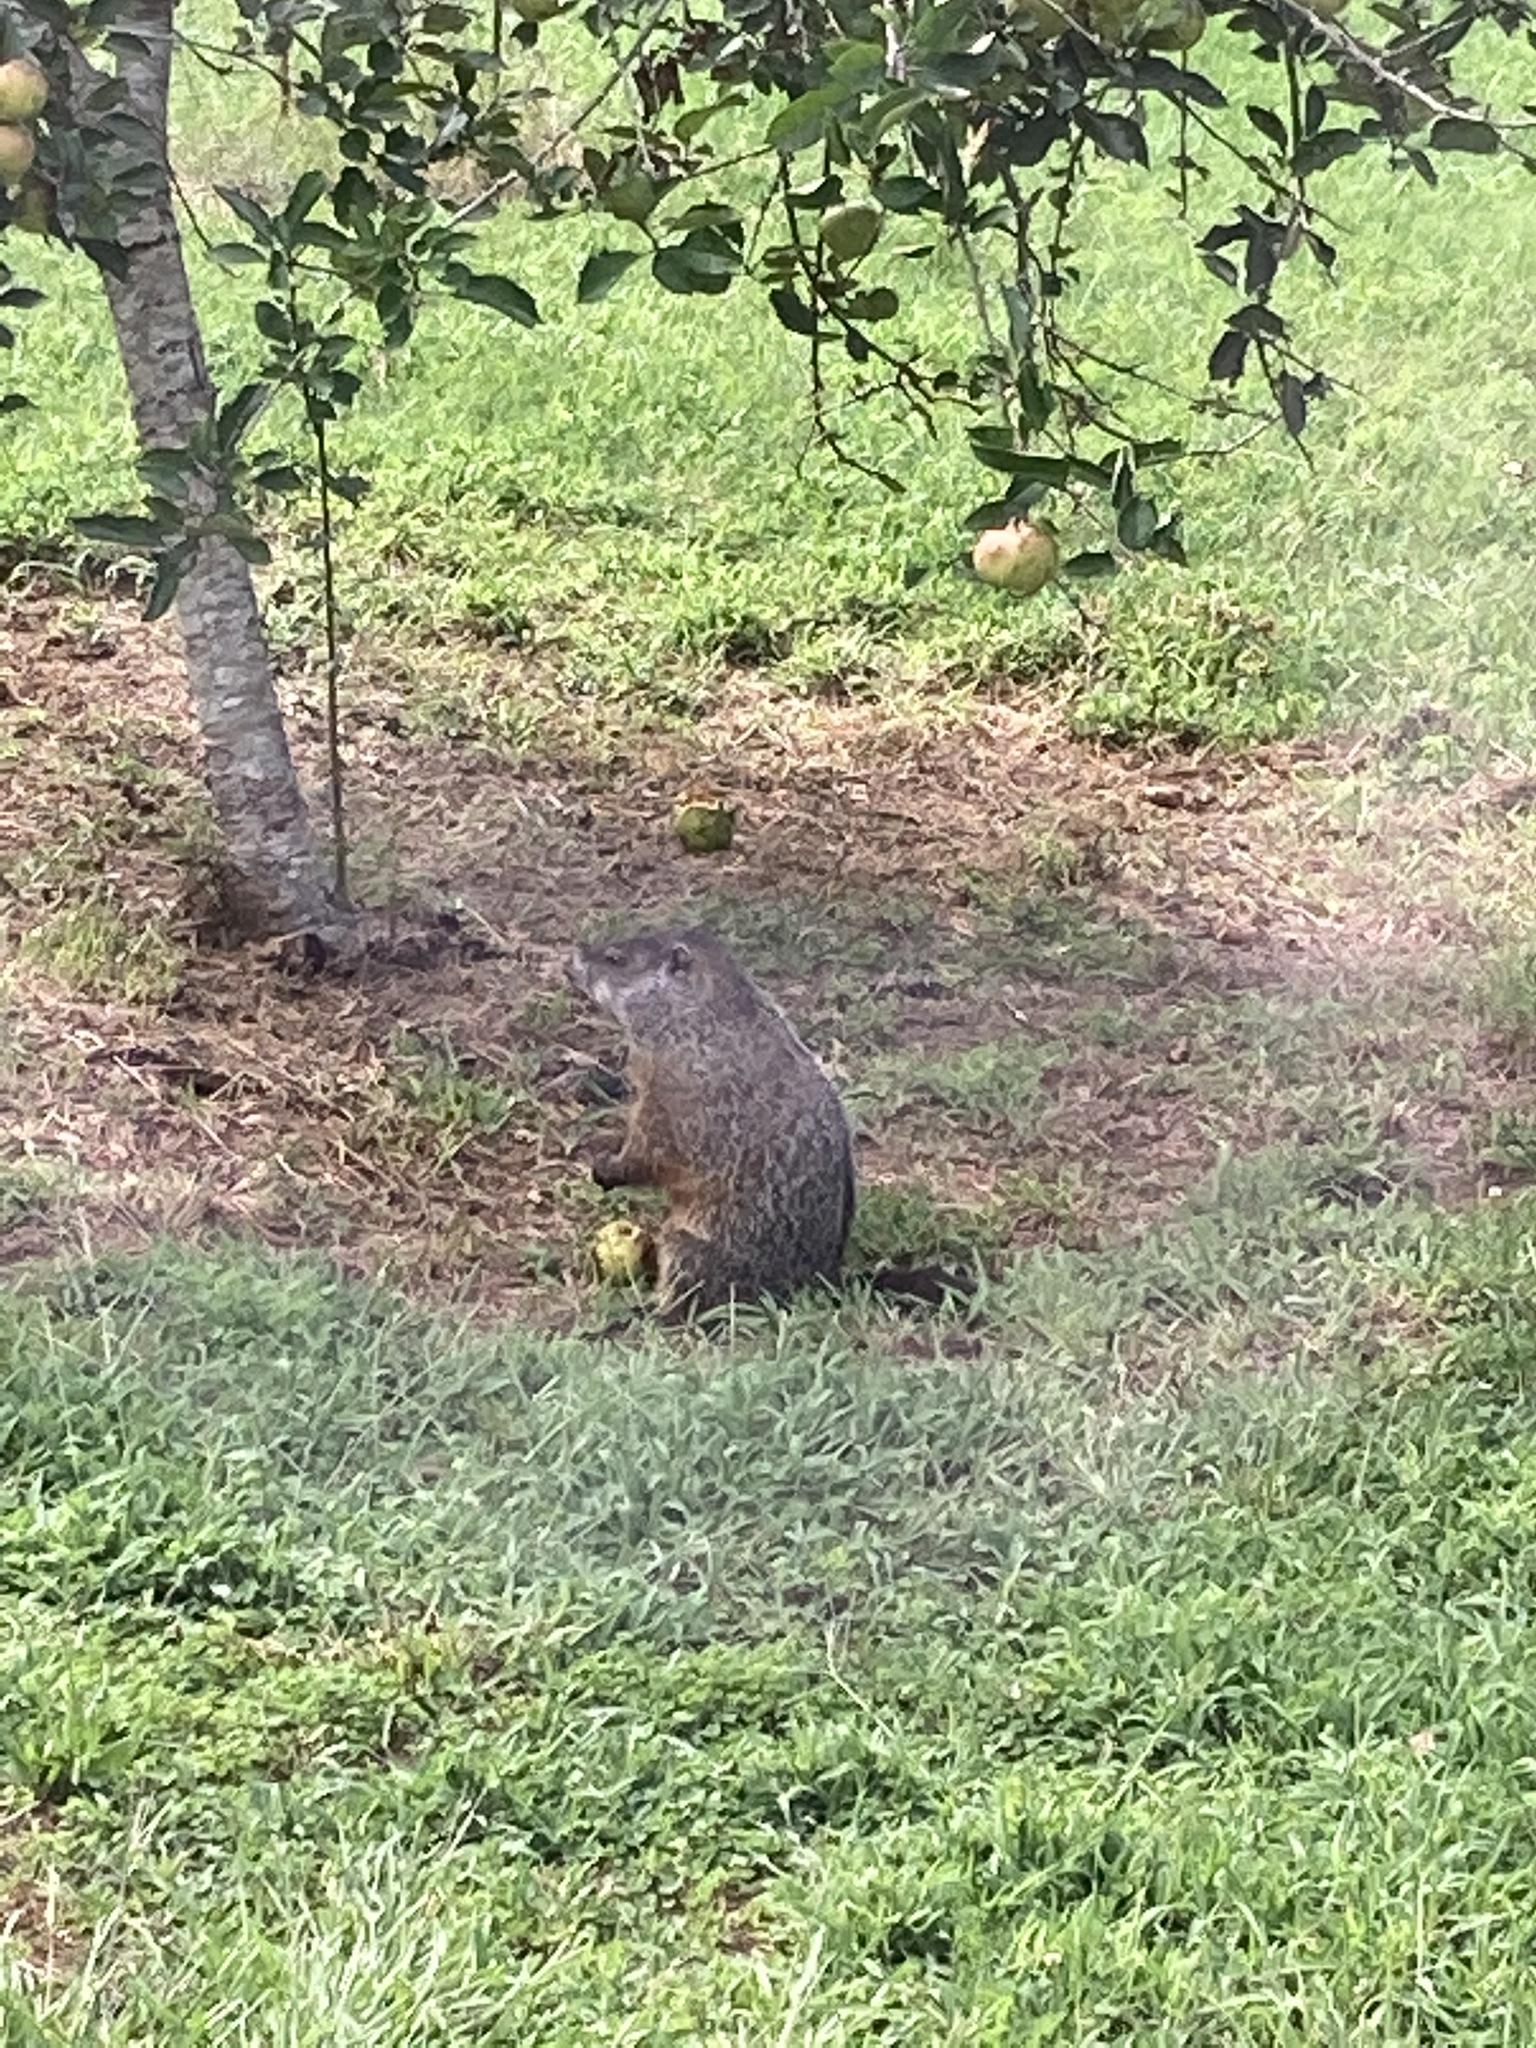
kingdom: Animalia
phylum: Chordata
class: Mammalia
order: Rodentia
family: Sciuridae
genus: Marmota
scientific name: Marmota monax
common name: Groundhog
